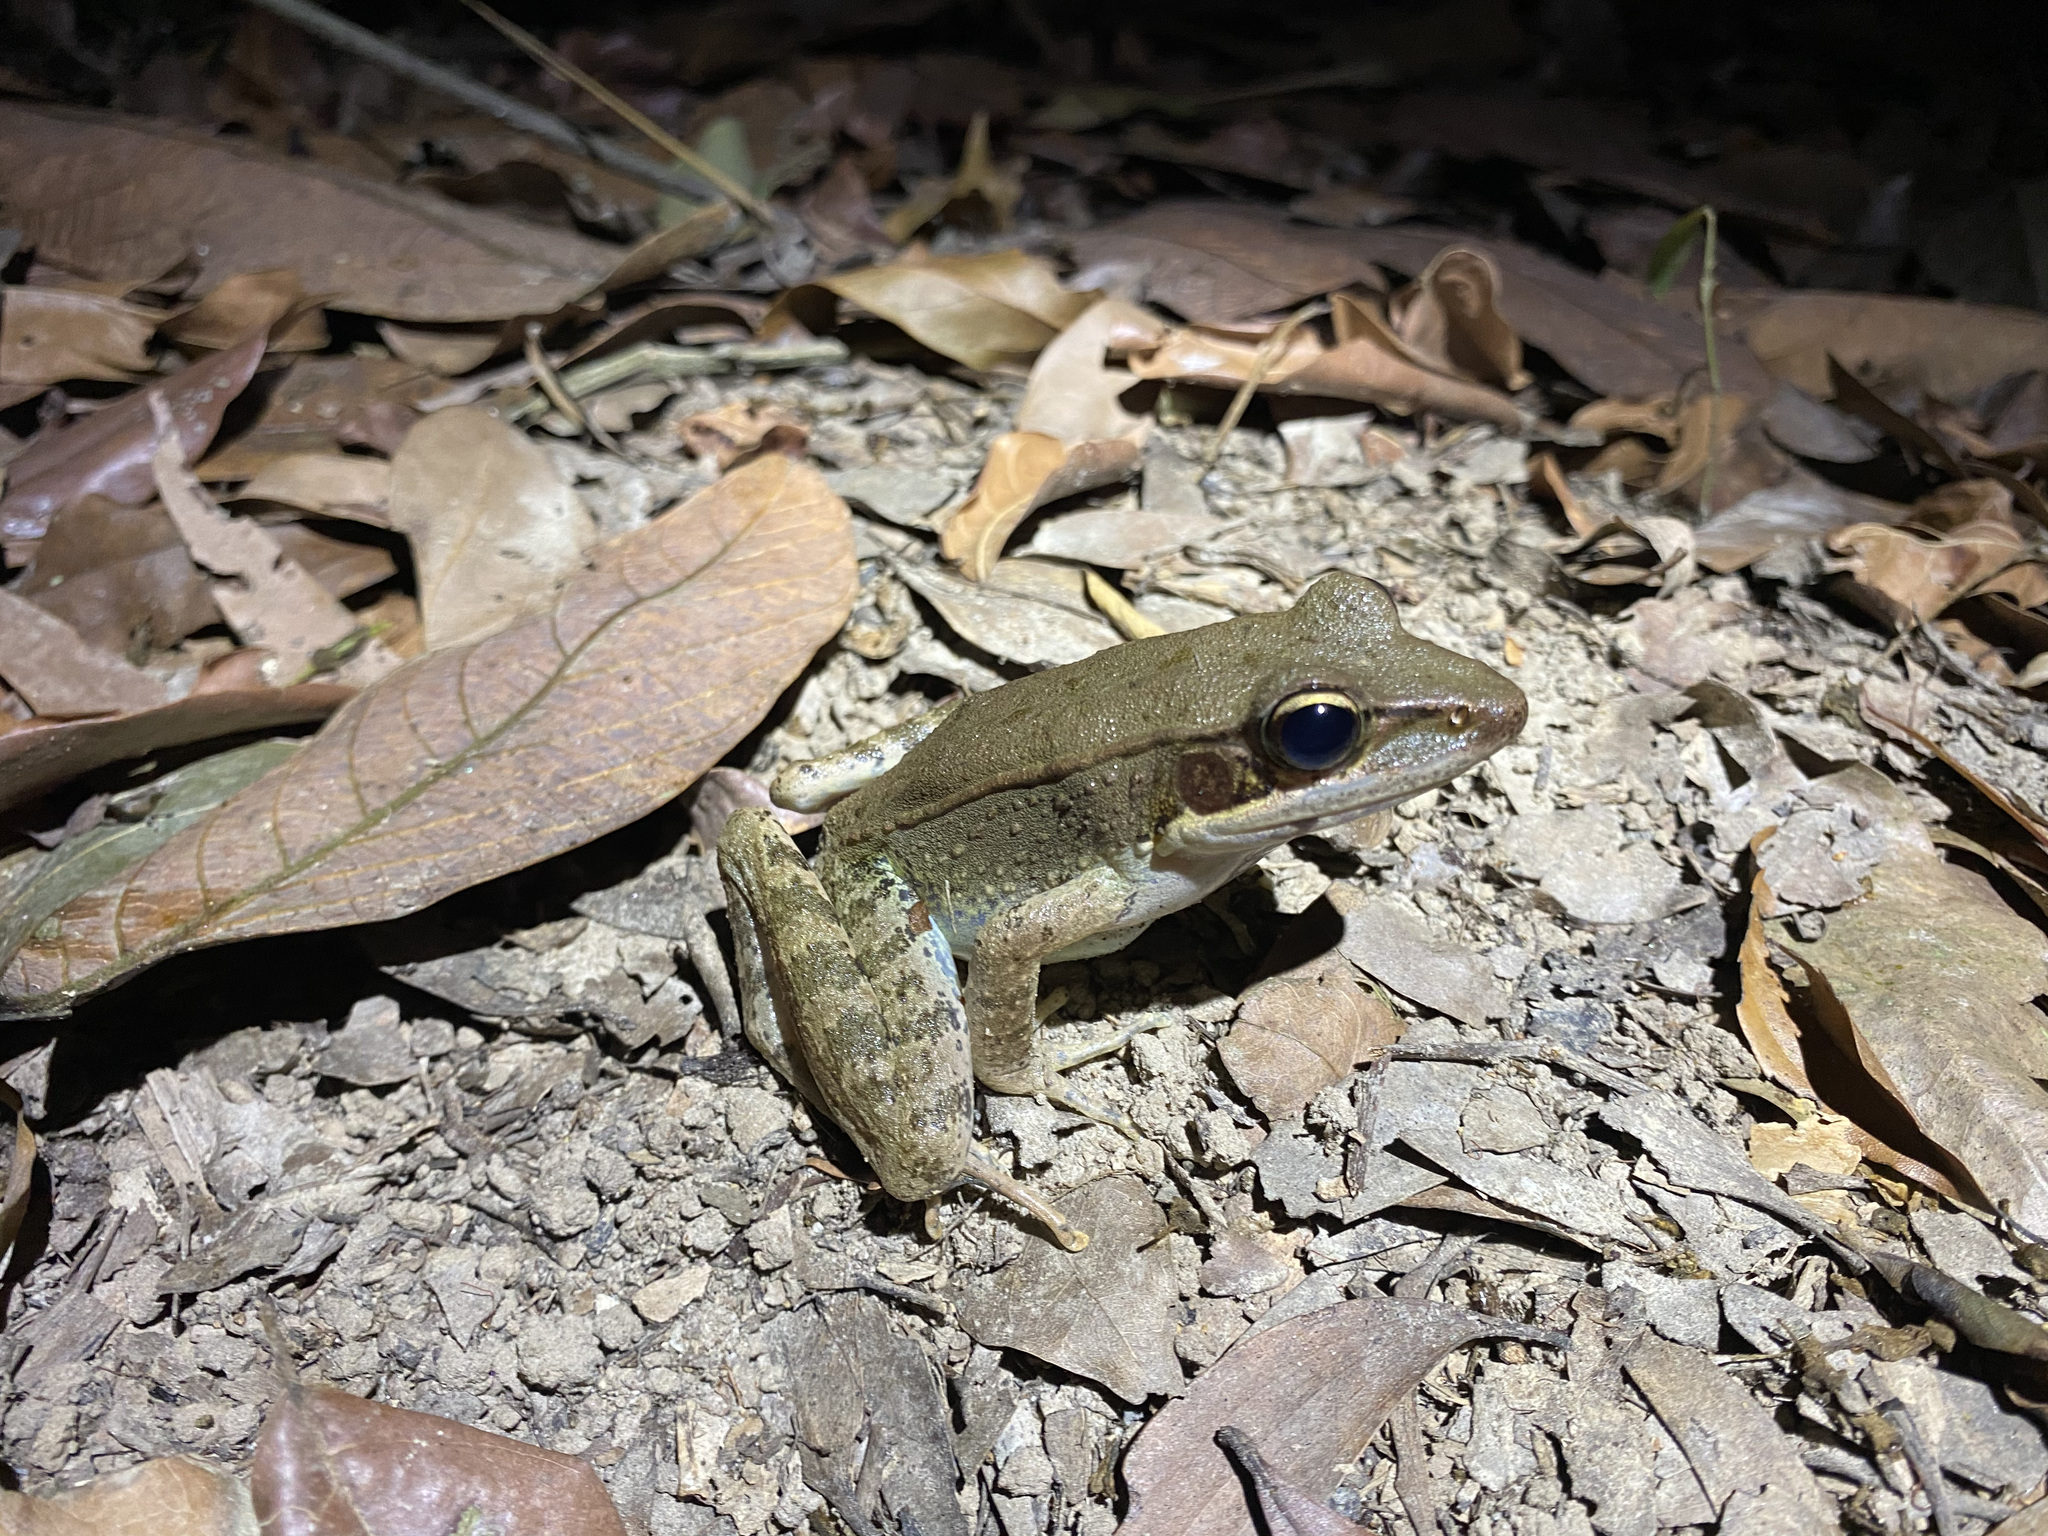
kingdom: Animalia
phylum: Chordata
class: Amphibia
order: Anura
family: Ranidae
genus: Papurana
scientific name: Papurana daemeli
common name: Arhem rana
